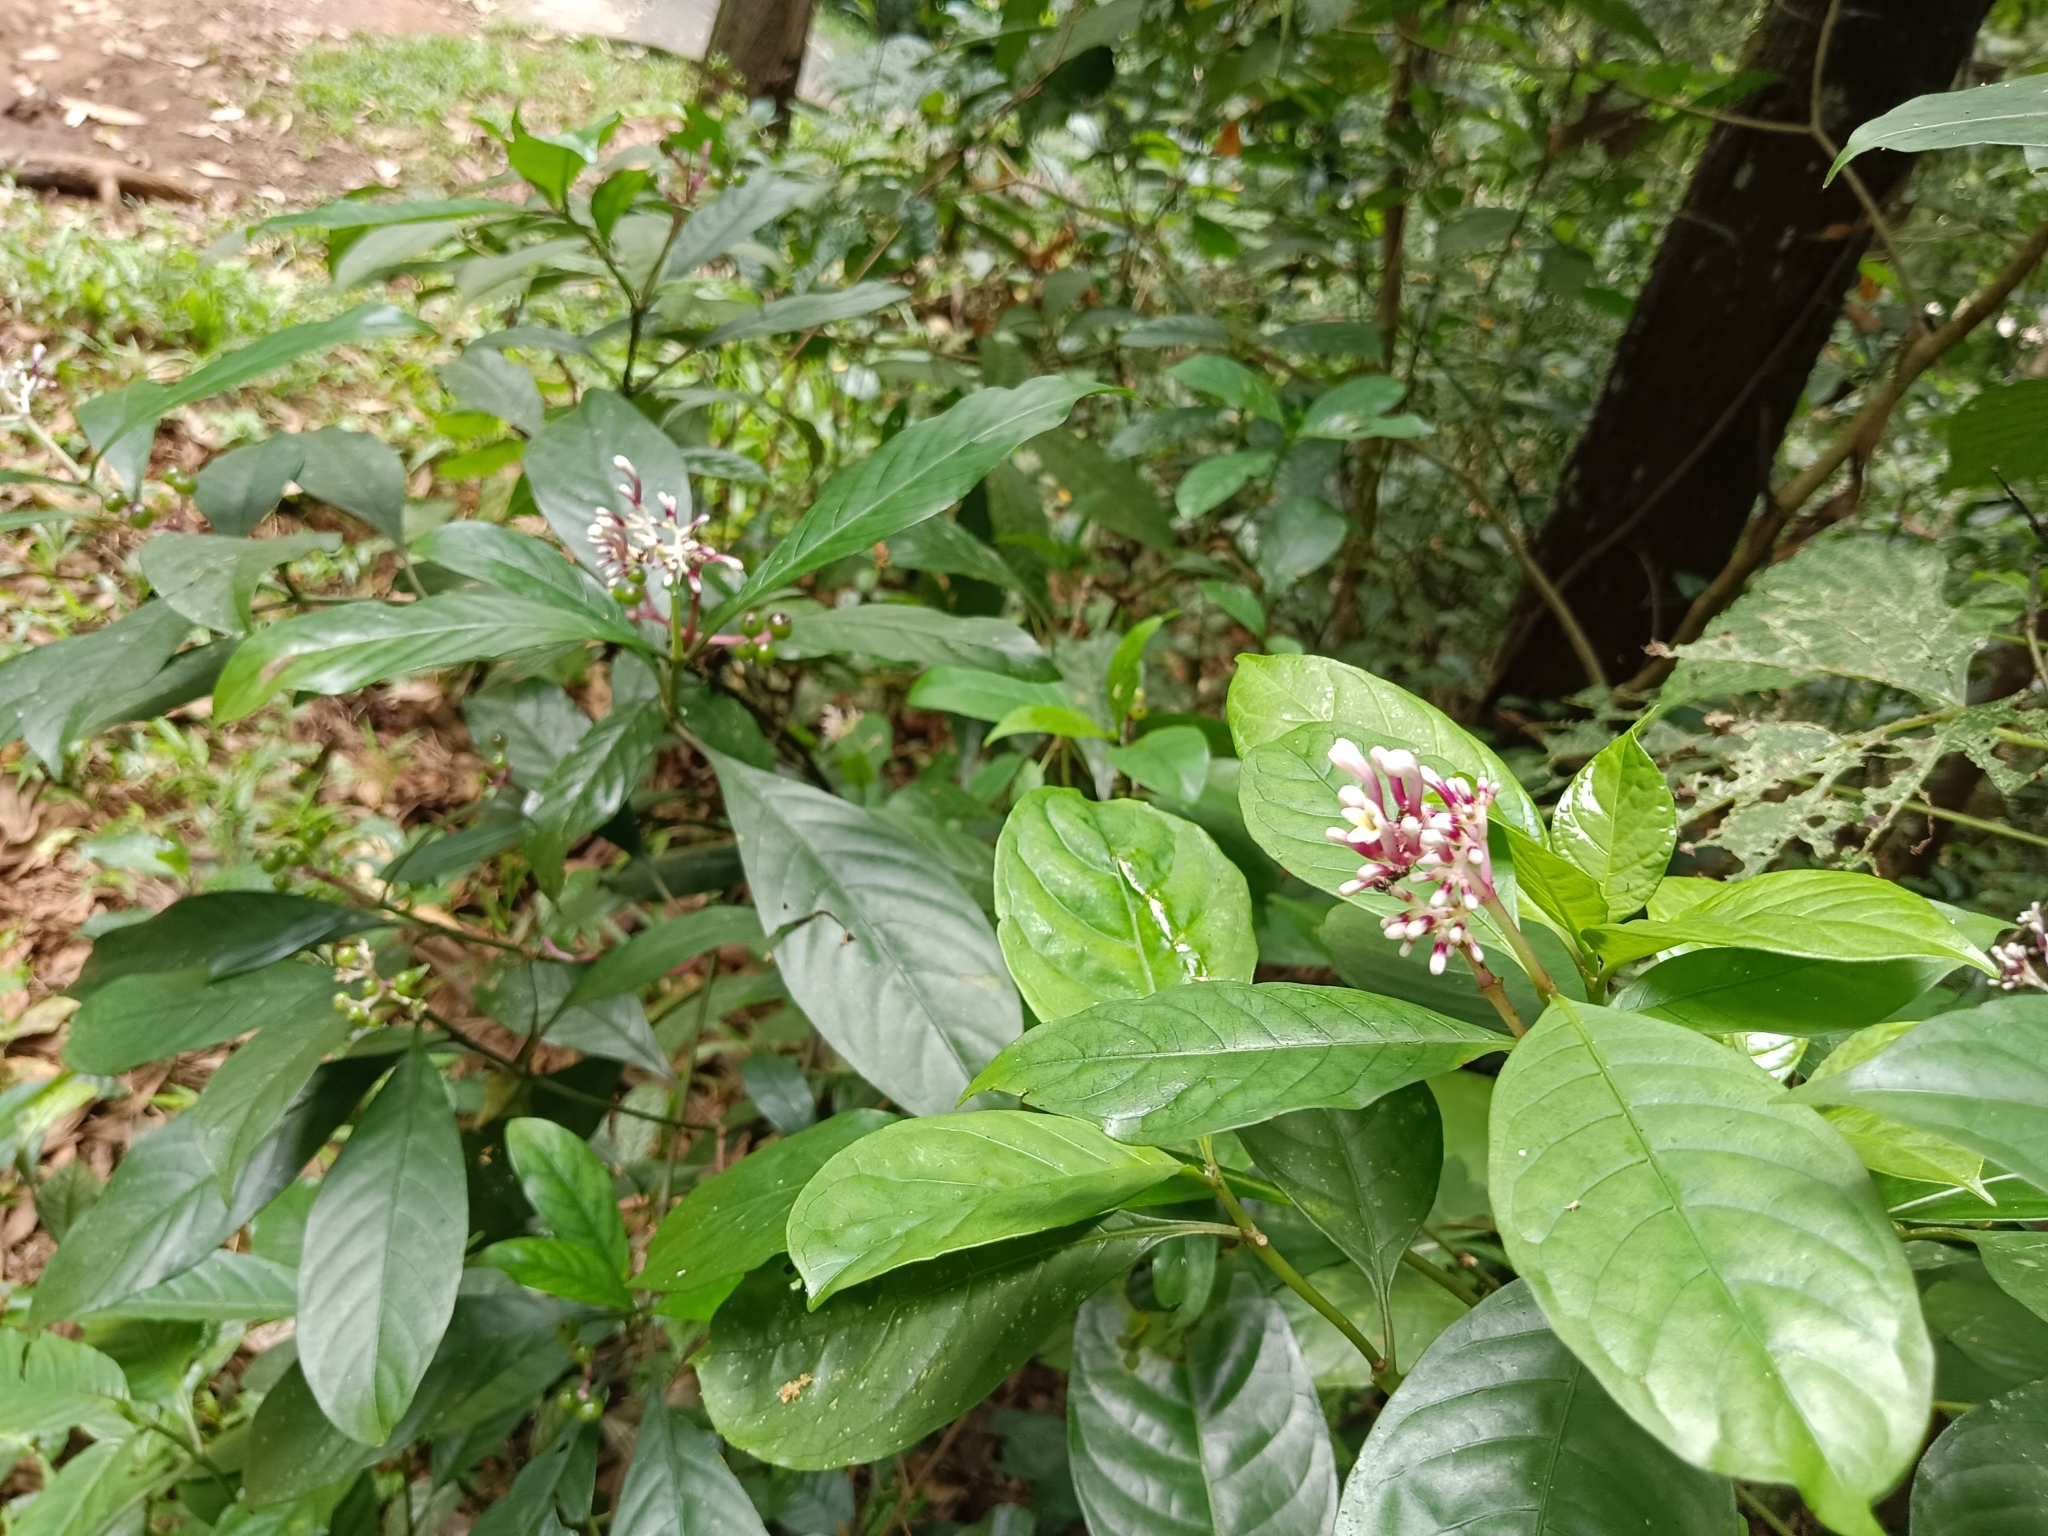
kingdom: Plantae
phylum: Tracheophyta
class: Magnoliopsida
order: Gentianales
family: Rubiaceae
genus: Chassalia
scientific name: Chassalia curviflora
